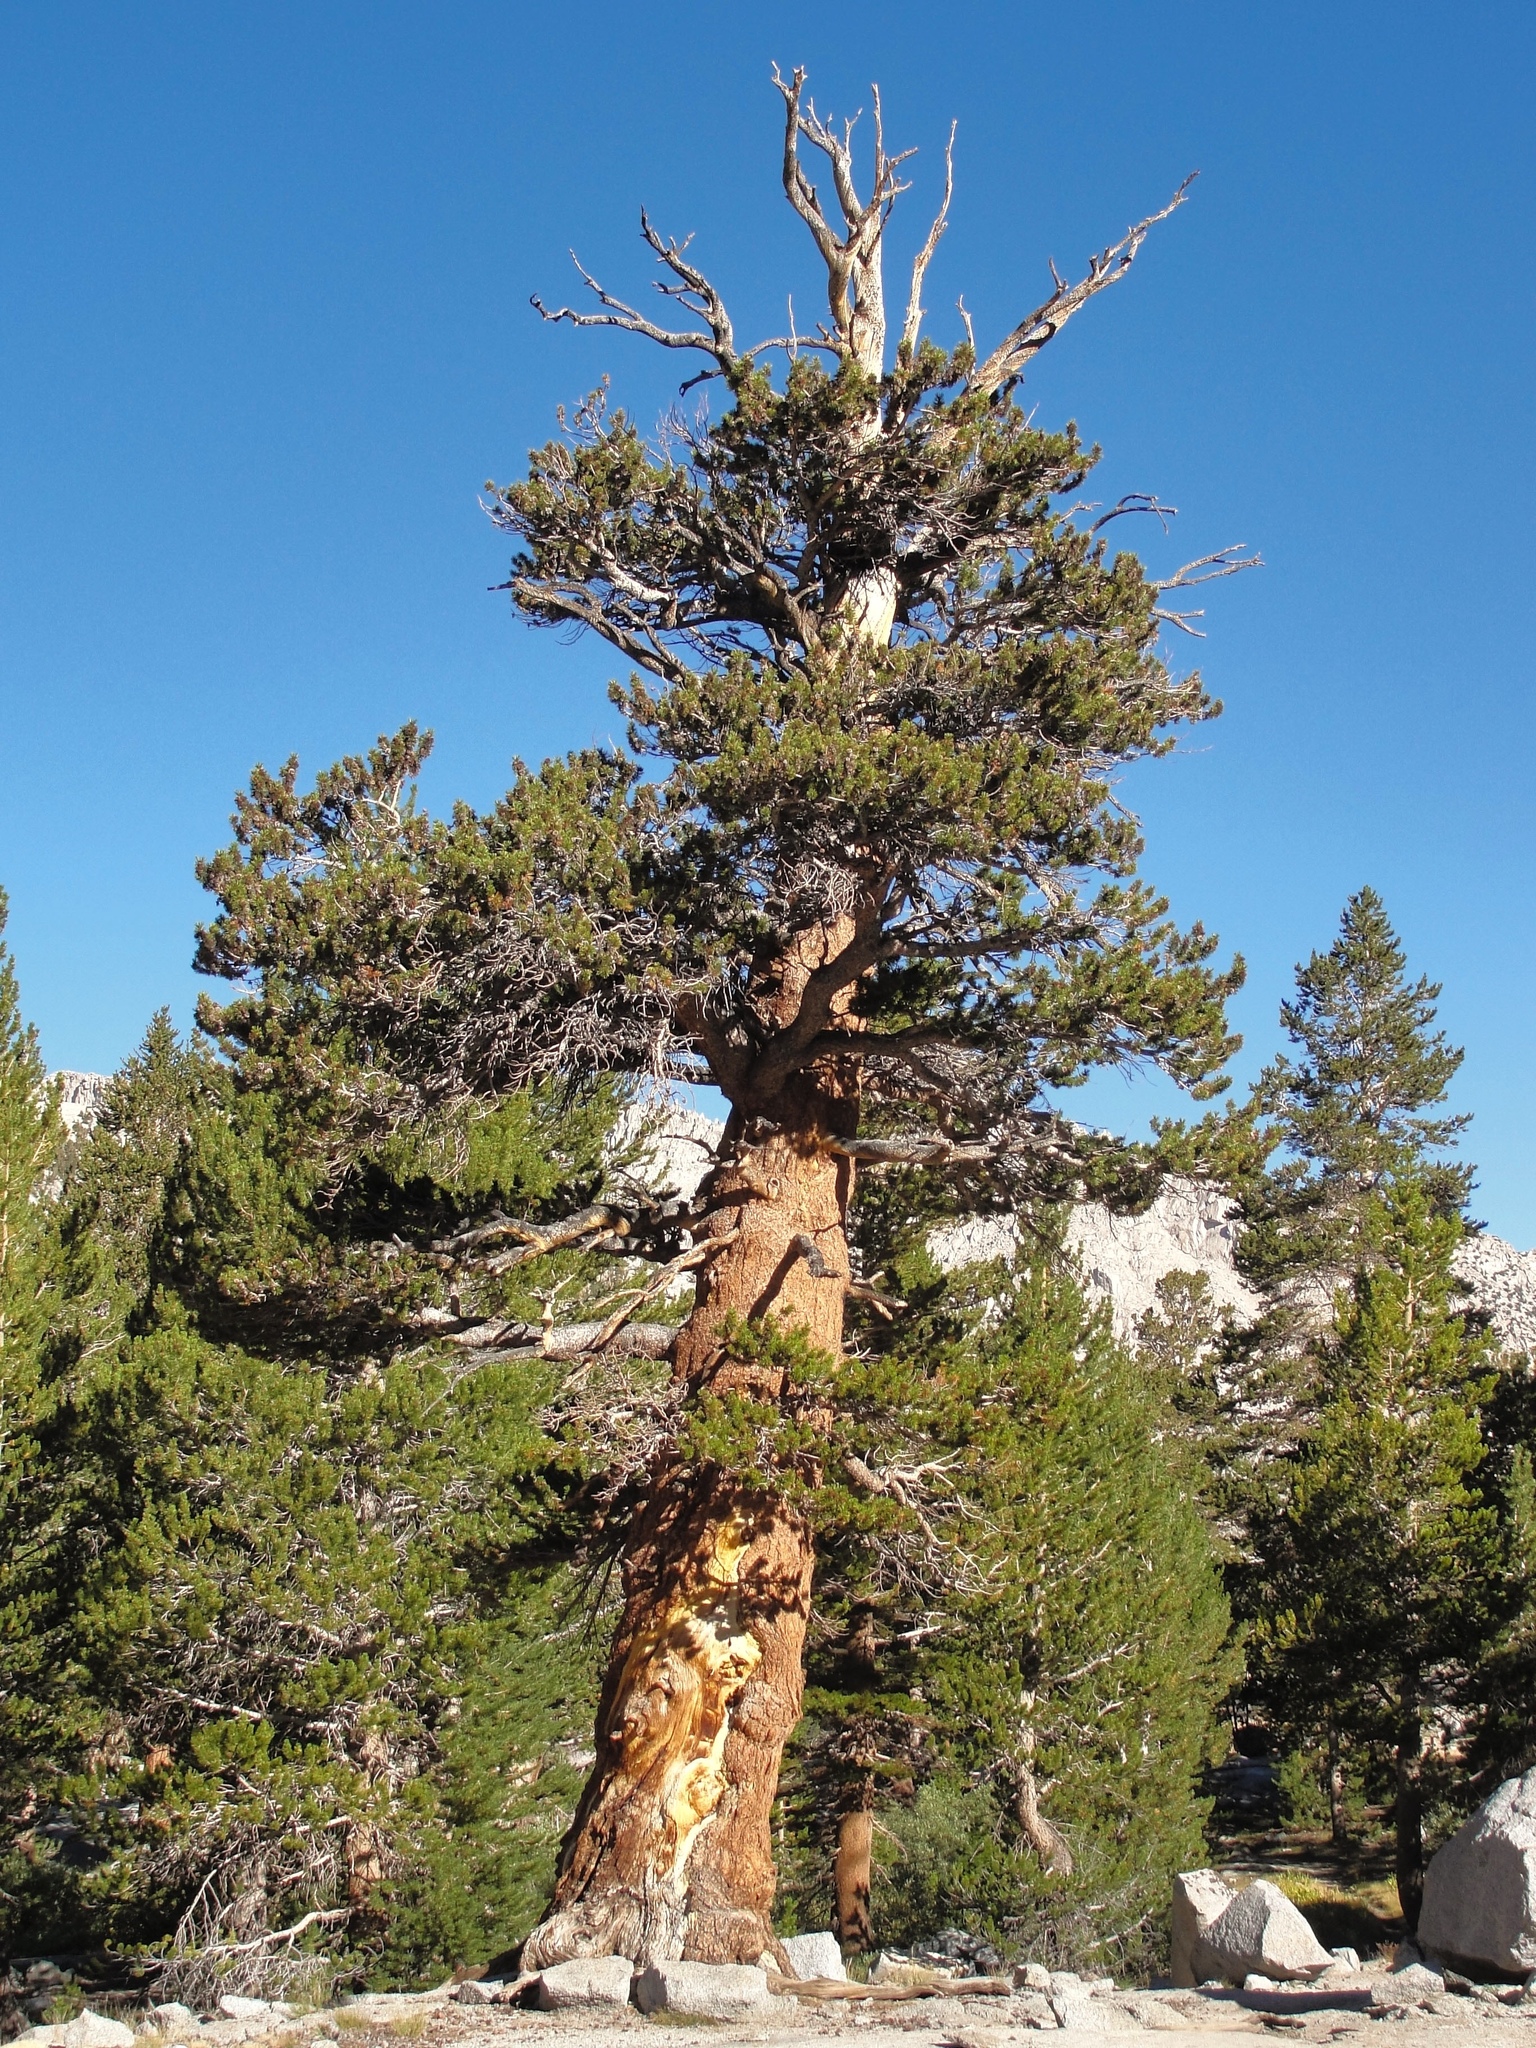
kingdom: Plantae
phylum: Tracheophyta
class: Pinopsida
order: Pinales
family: Pinaceae
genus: Pinus
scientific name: Pinus balfouriana
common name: Foxtail pine
